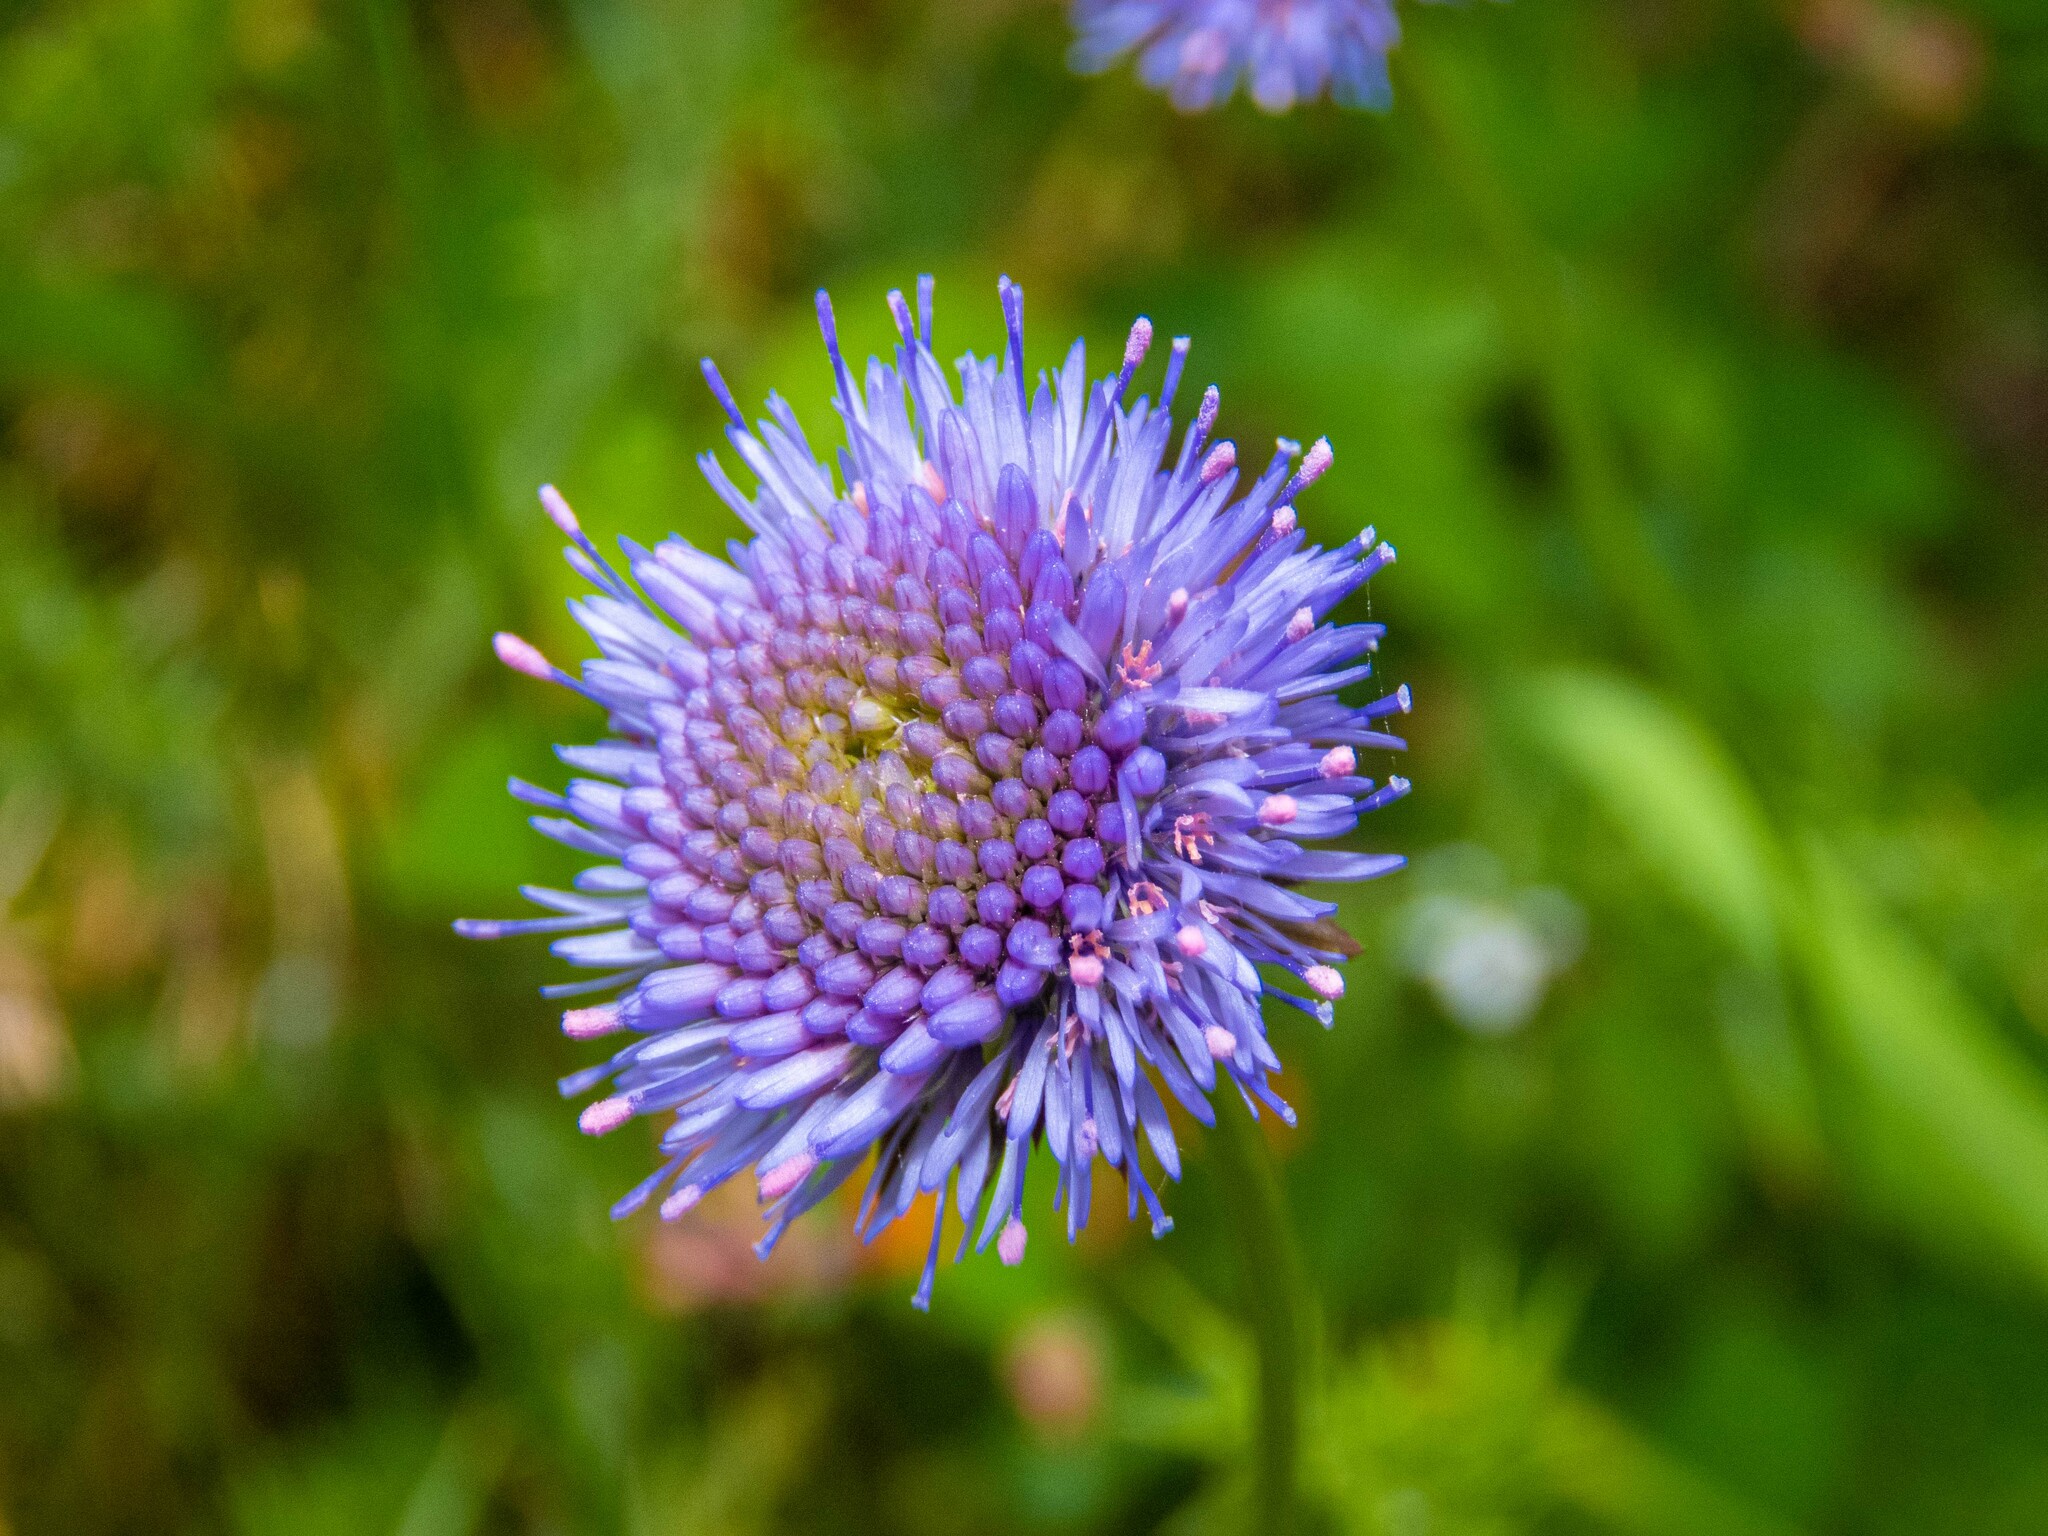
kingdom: Plantae
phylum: Tracheophyta
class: Magnoliopsida
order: Asterales
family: Campanulaceae
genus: Jasione
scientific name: Jasione montana
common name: Sheep's-bit
